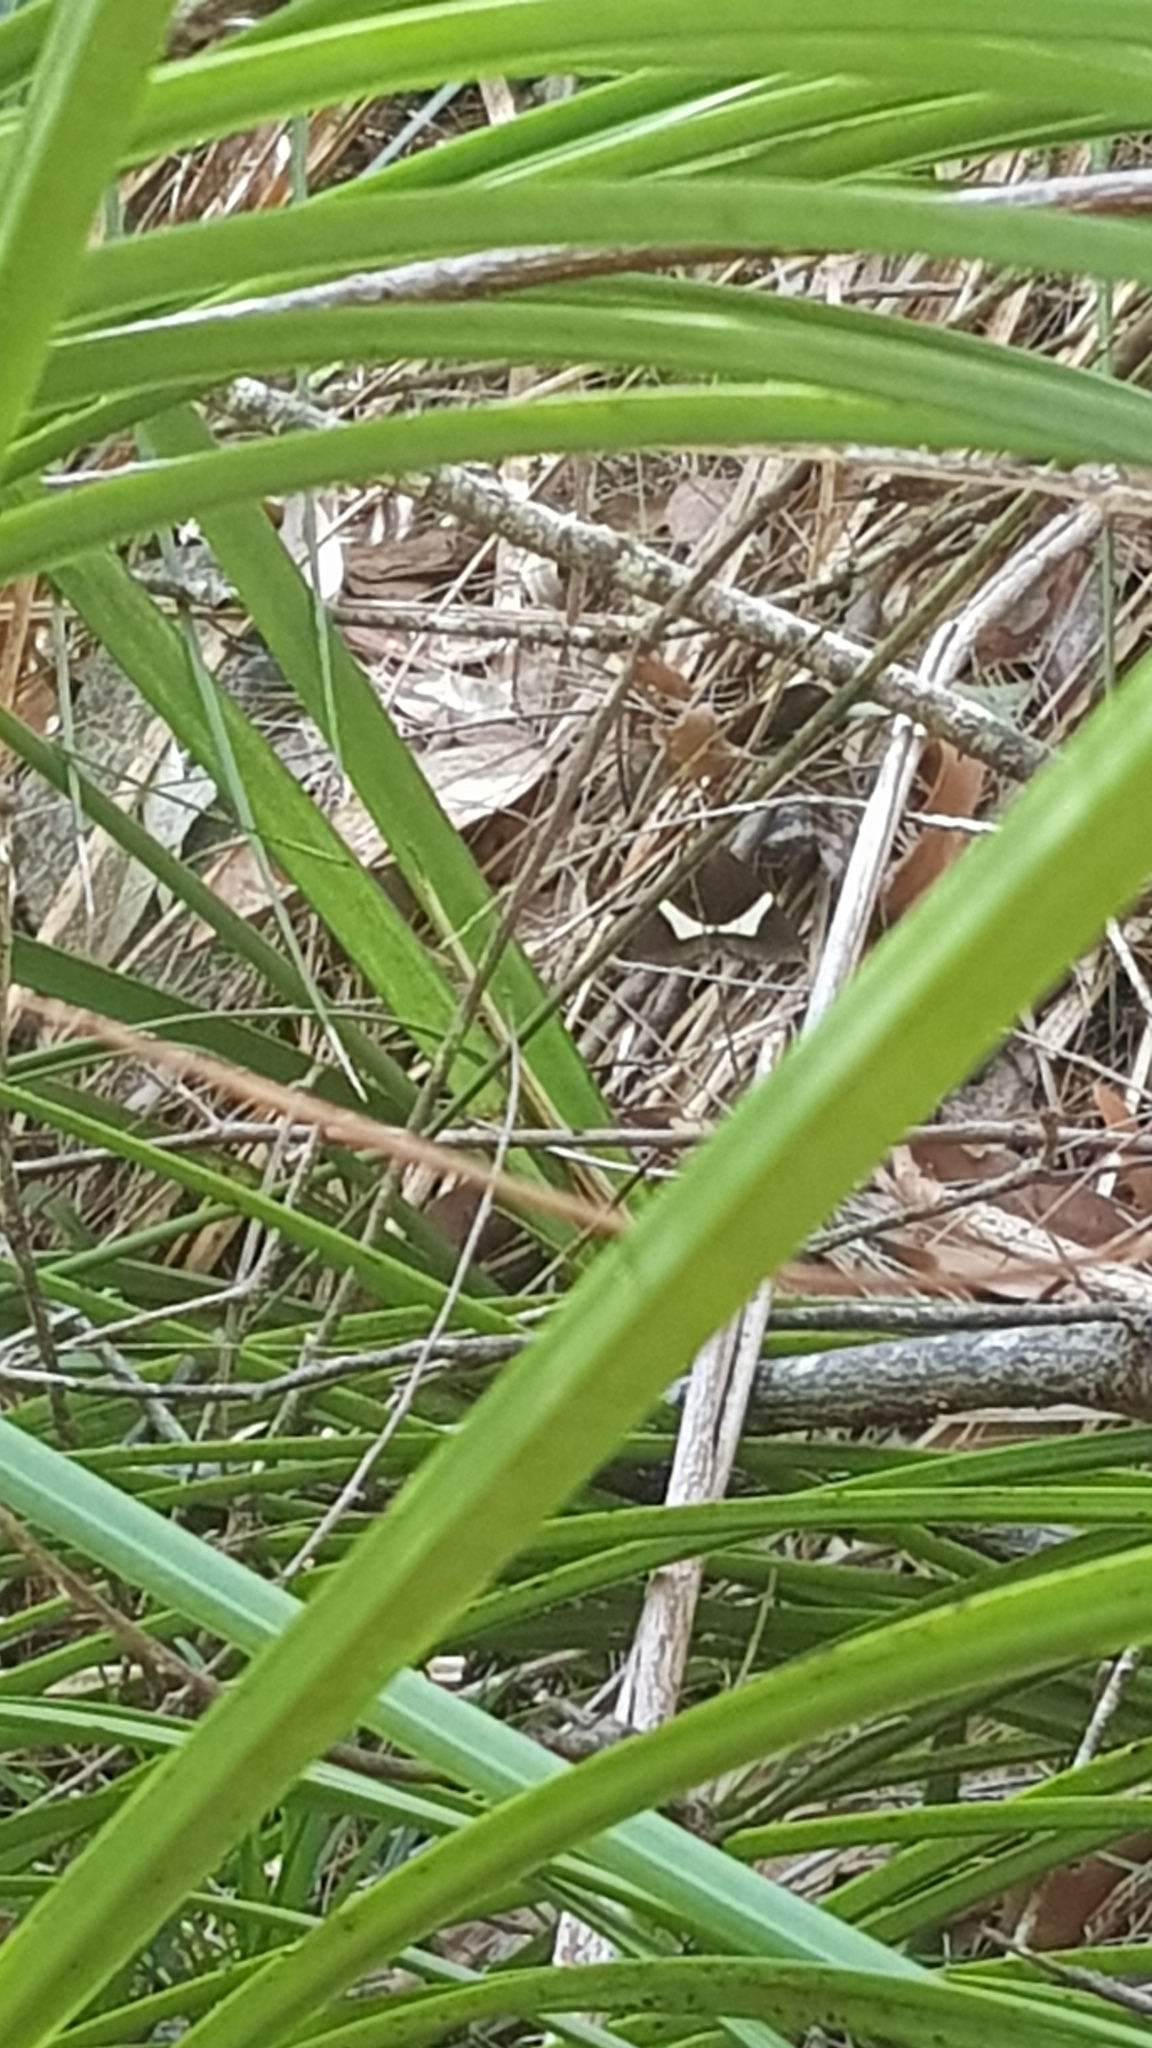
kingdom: Animalia
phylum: Arthropoda
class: Insecta
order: Lepidoptera
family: Geometridae
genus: Epidesmia
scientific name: Epidesmia tricolor
